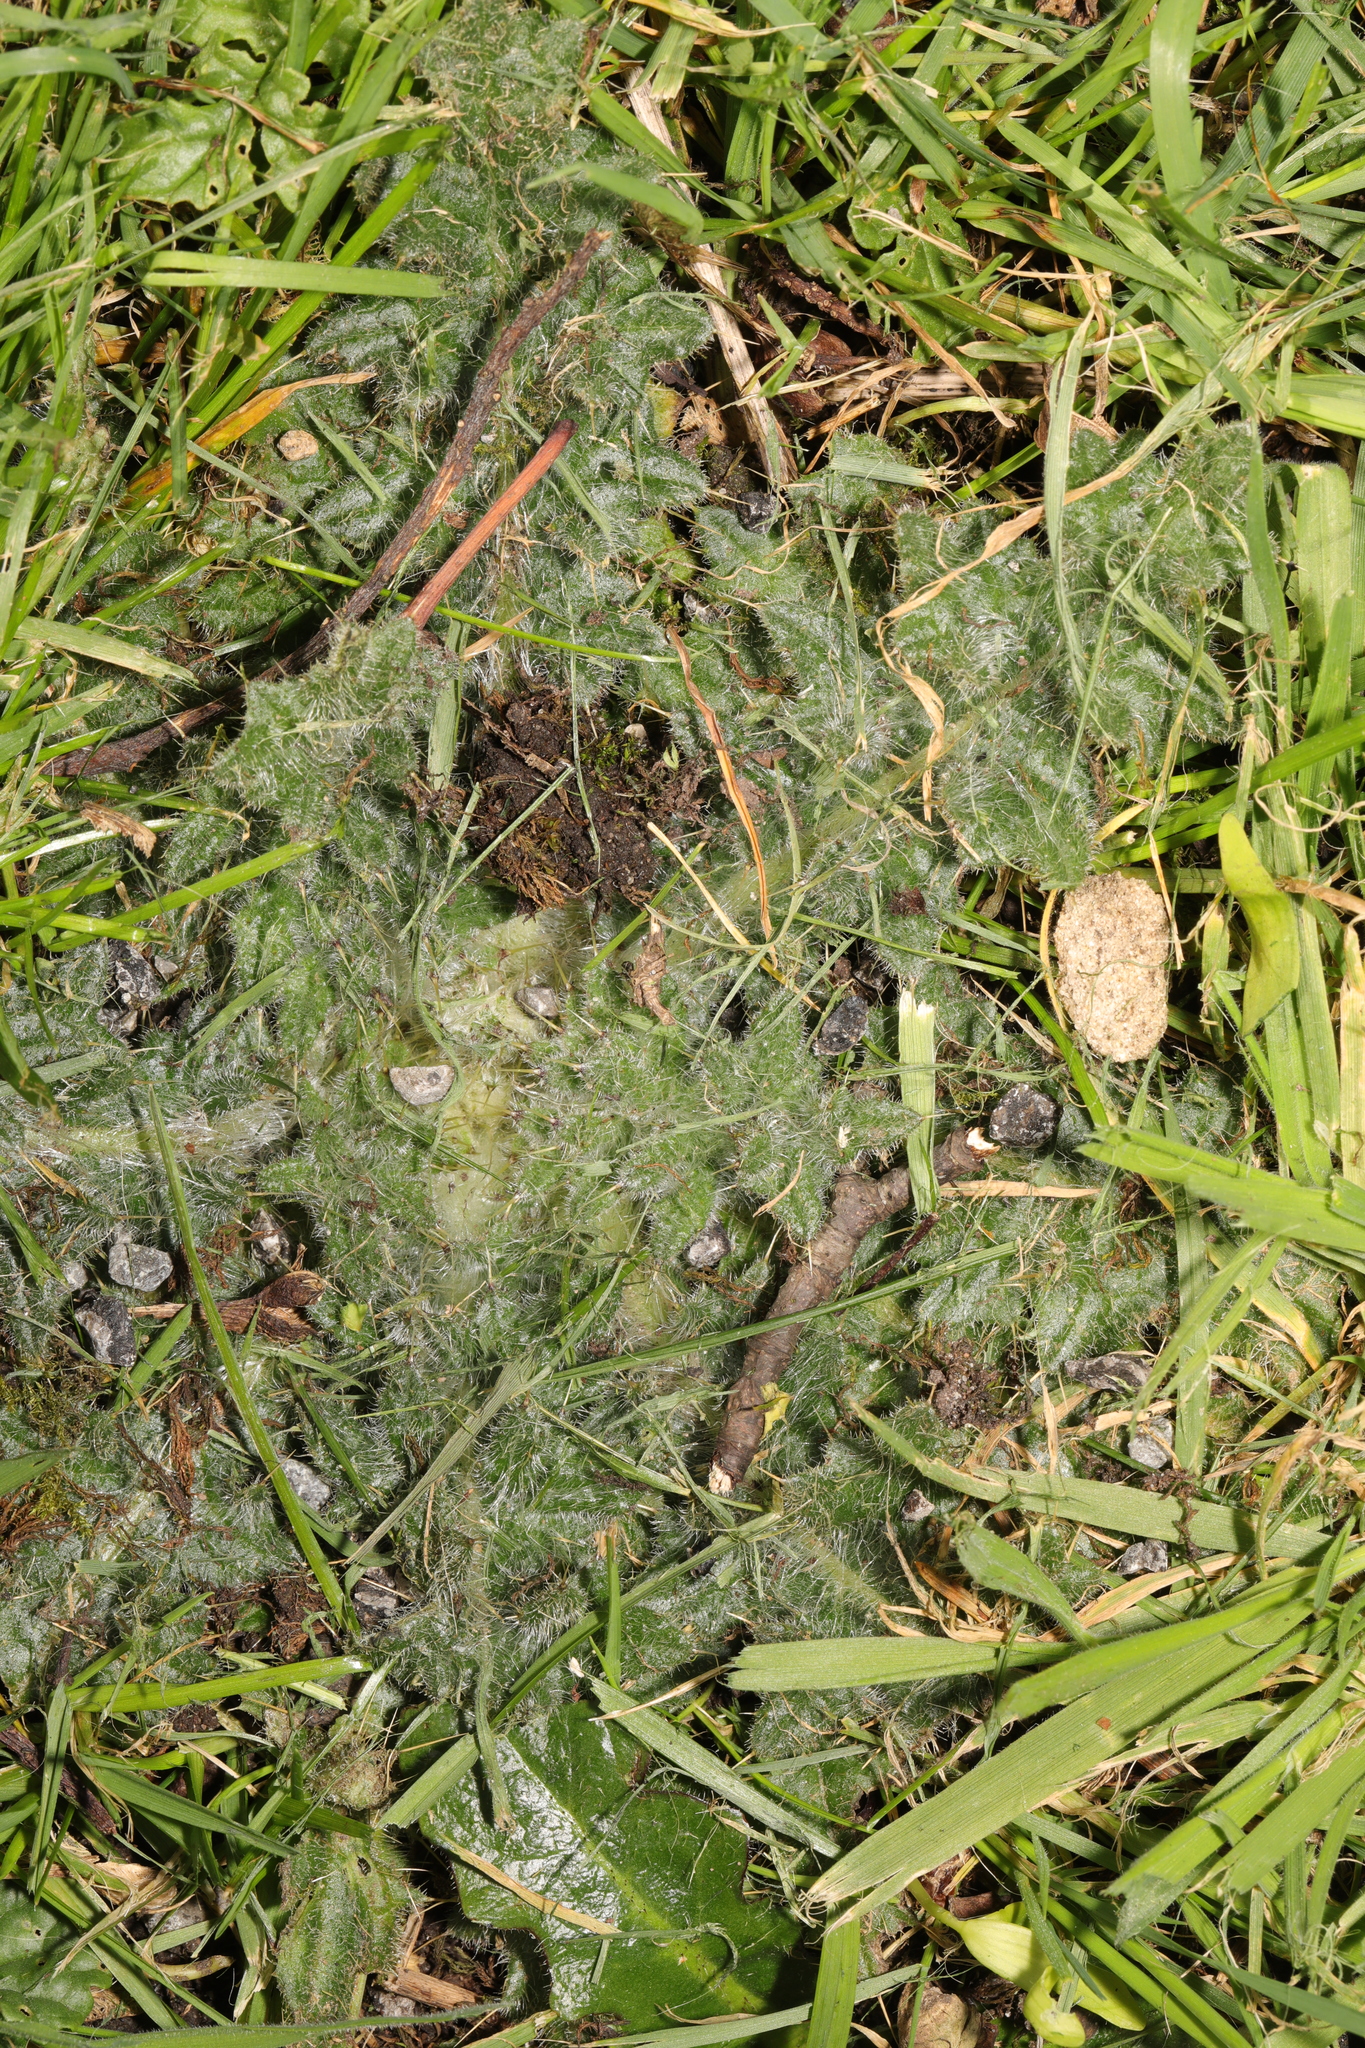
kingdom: Plantae
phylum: Tracheophyta
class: Magnoliopsida
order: Asterales
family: Asteraceae
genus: Cirsium
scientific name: Cirsium vulgare
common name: Bull thistle
